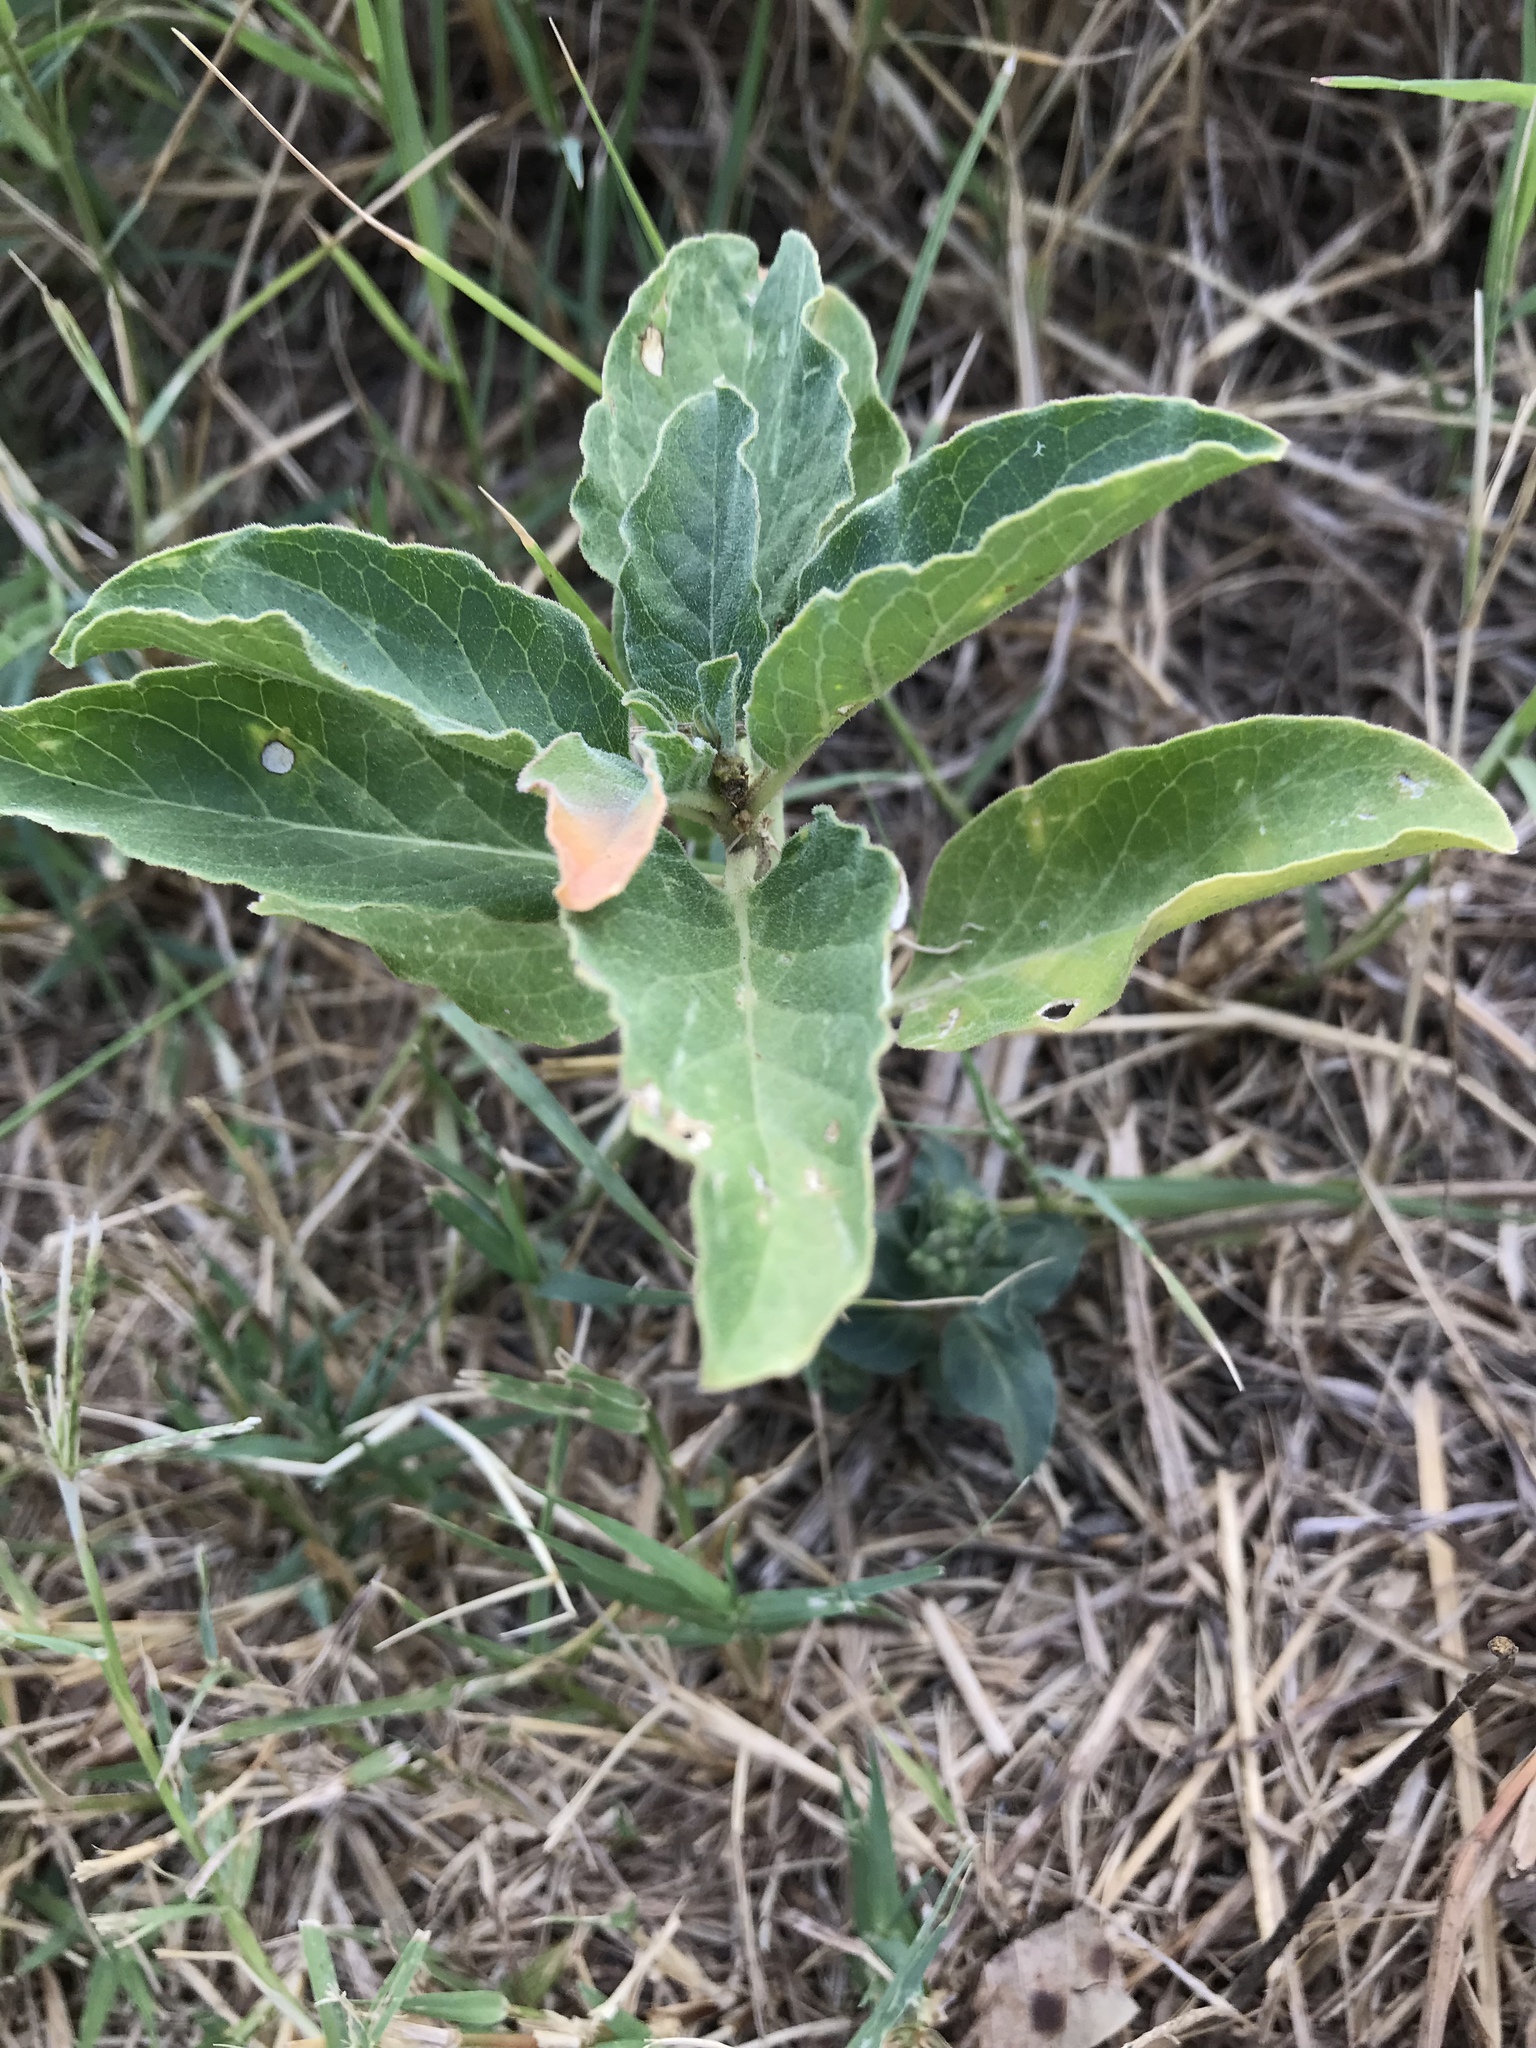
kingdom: Plantae
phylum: Tracheophyta
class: Magnoliopsida
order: Gentianales
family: Apocynaceae
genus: Asclepias
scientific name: Asclepias oenotheroides
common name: Zizotes milkweed
